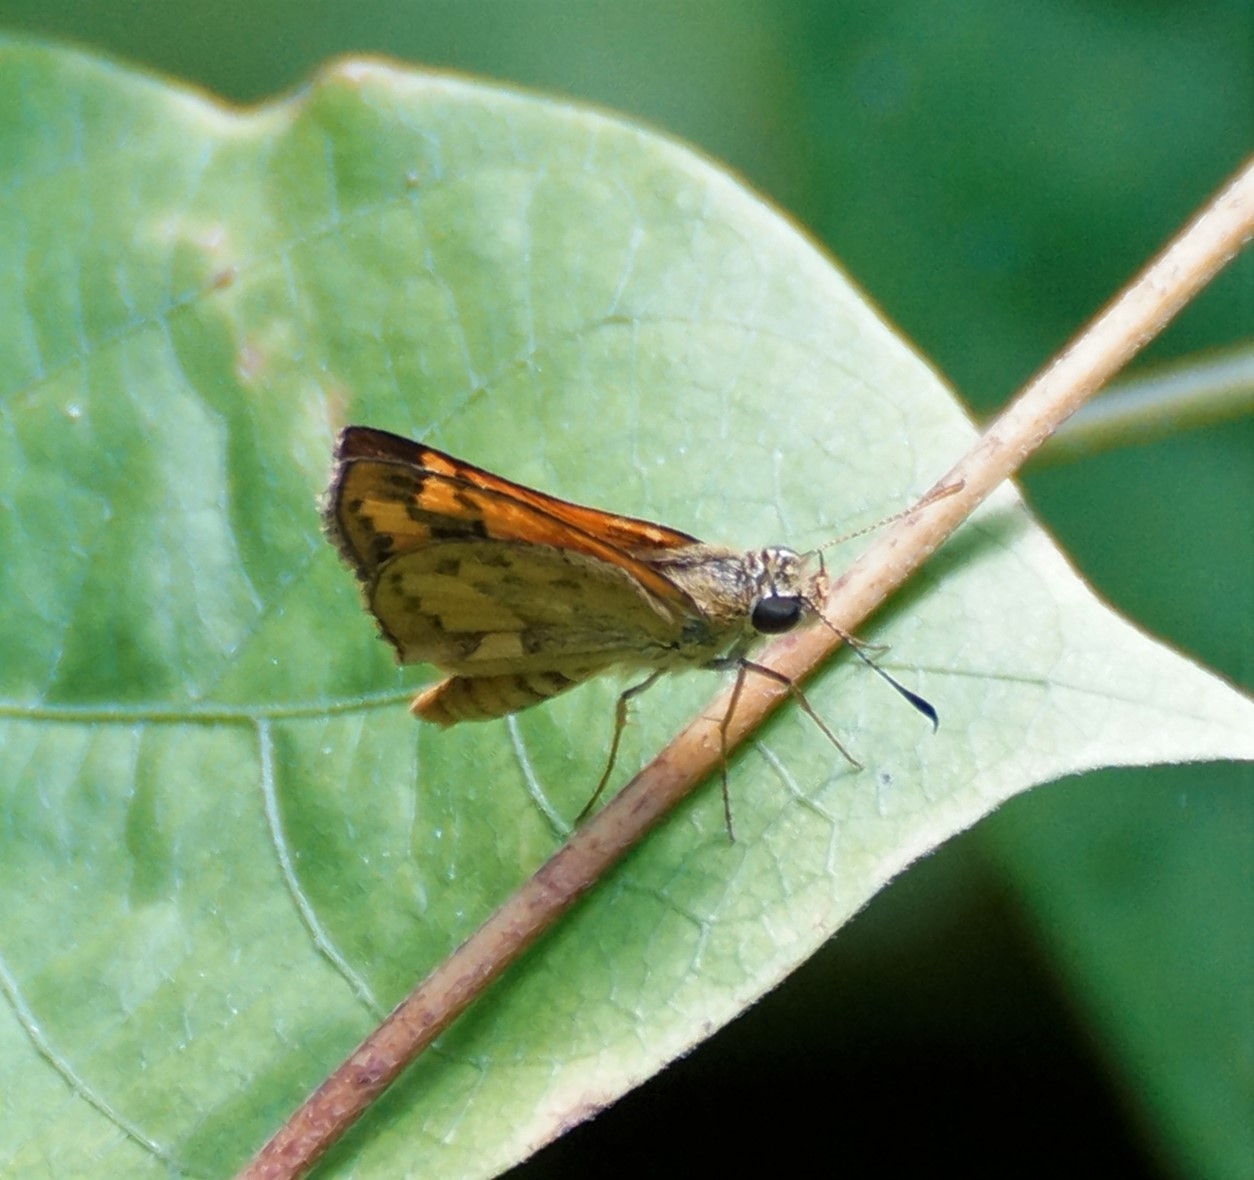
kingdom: Animalia
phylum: Arthropoda
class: Insecta
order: Lepidoptera
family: Hesperiidae
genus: Suniana
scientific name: Suniana sunias
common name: Wide-brand grass-dart
